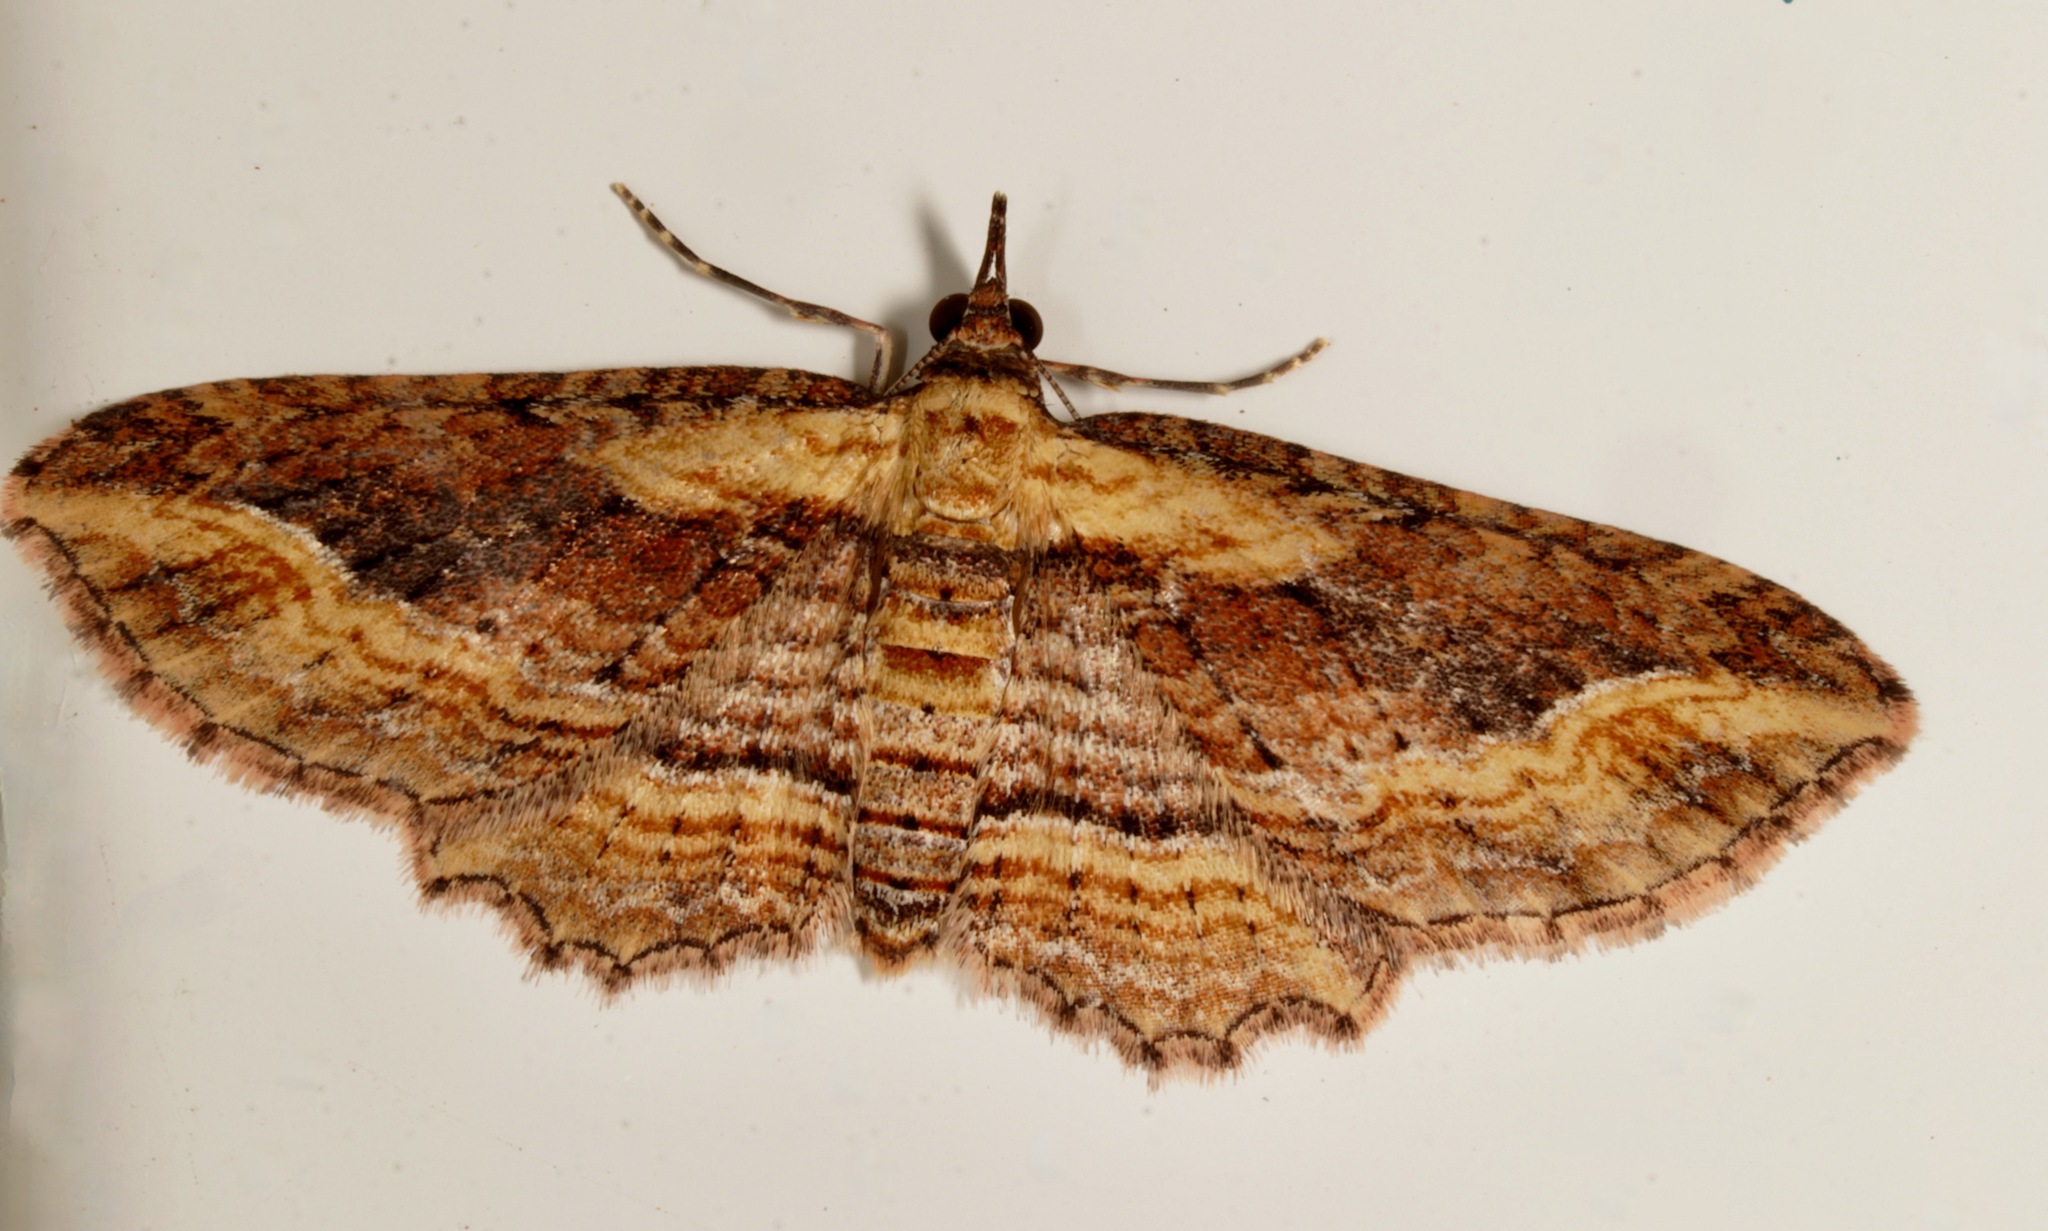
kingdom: Animalia
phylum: Arthropoda
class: Insecta
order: Lepidoptera
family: Geometridae
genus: Chloroclystis
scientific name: Chloroclystis filata
